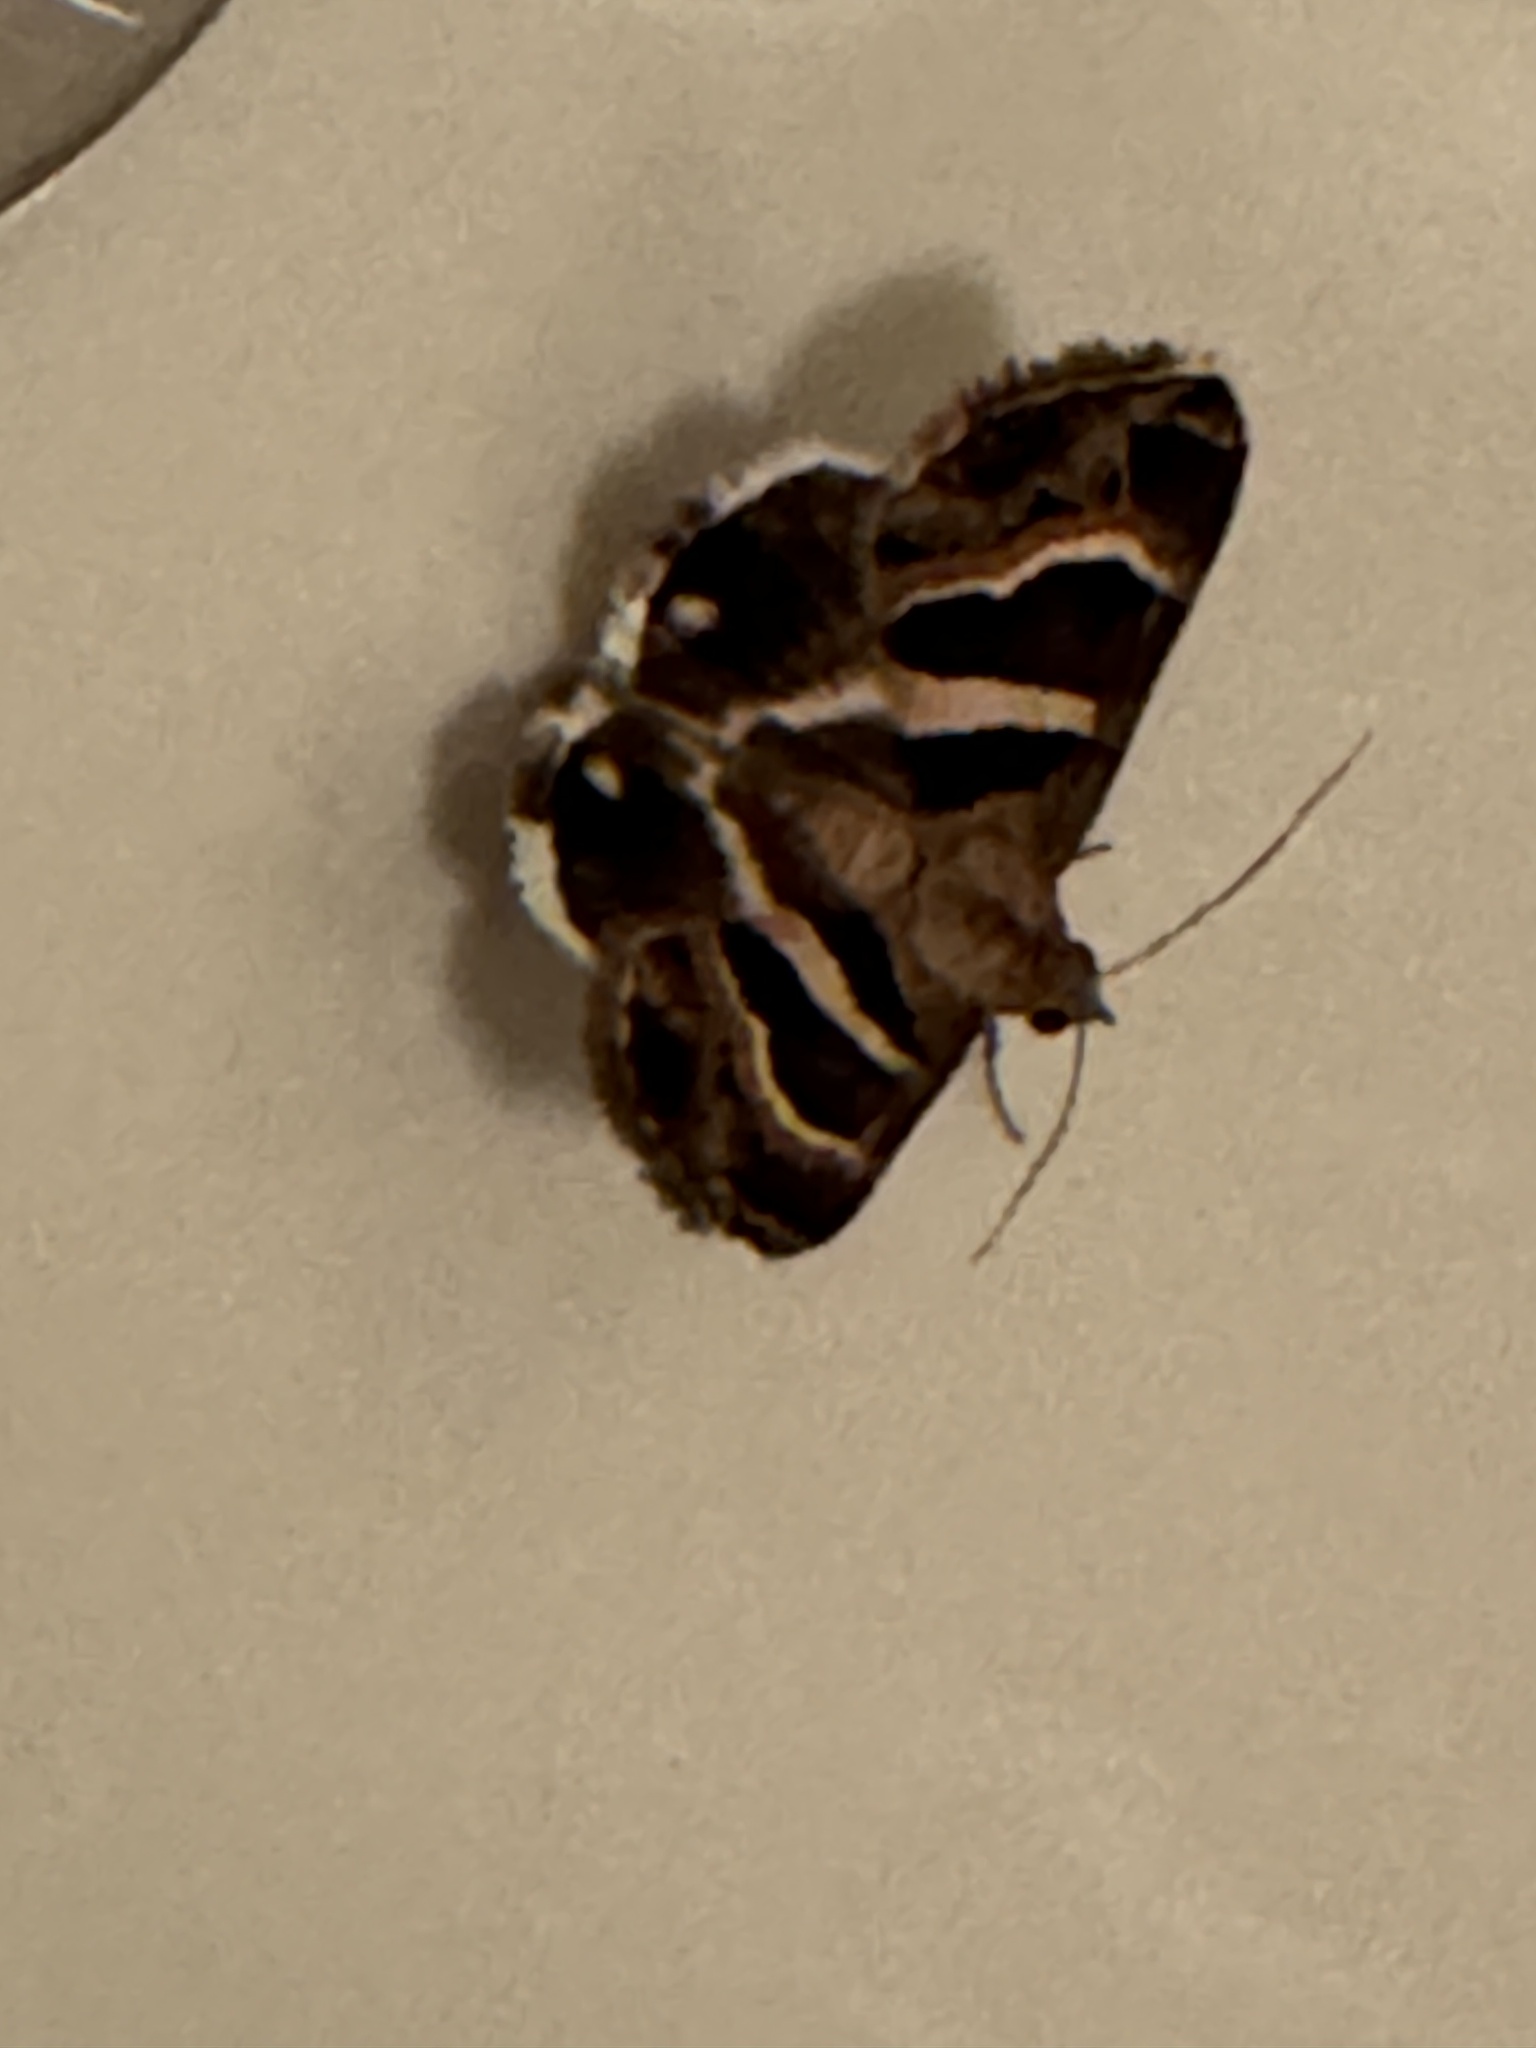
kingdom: Animalia
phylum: Arthropoda
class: Insecta
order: Lepidoptera
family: Erebidae
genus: Grammodes
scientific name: Grammodes stolida
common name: Geometrician
